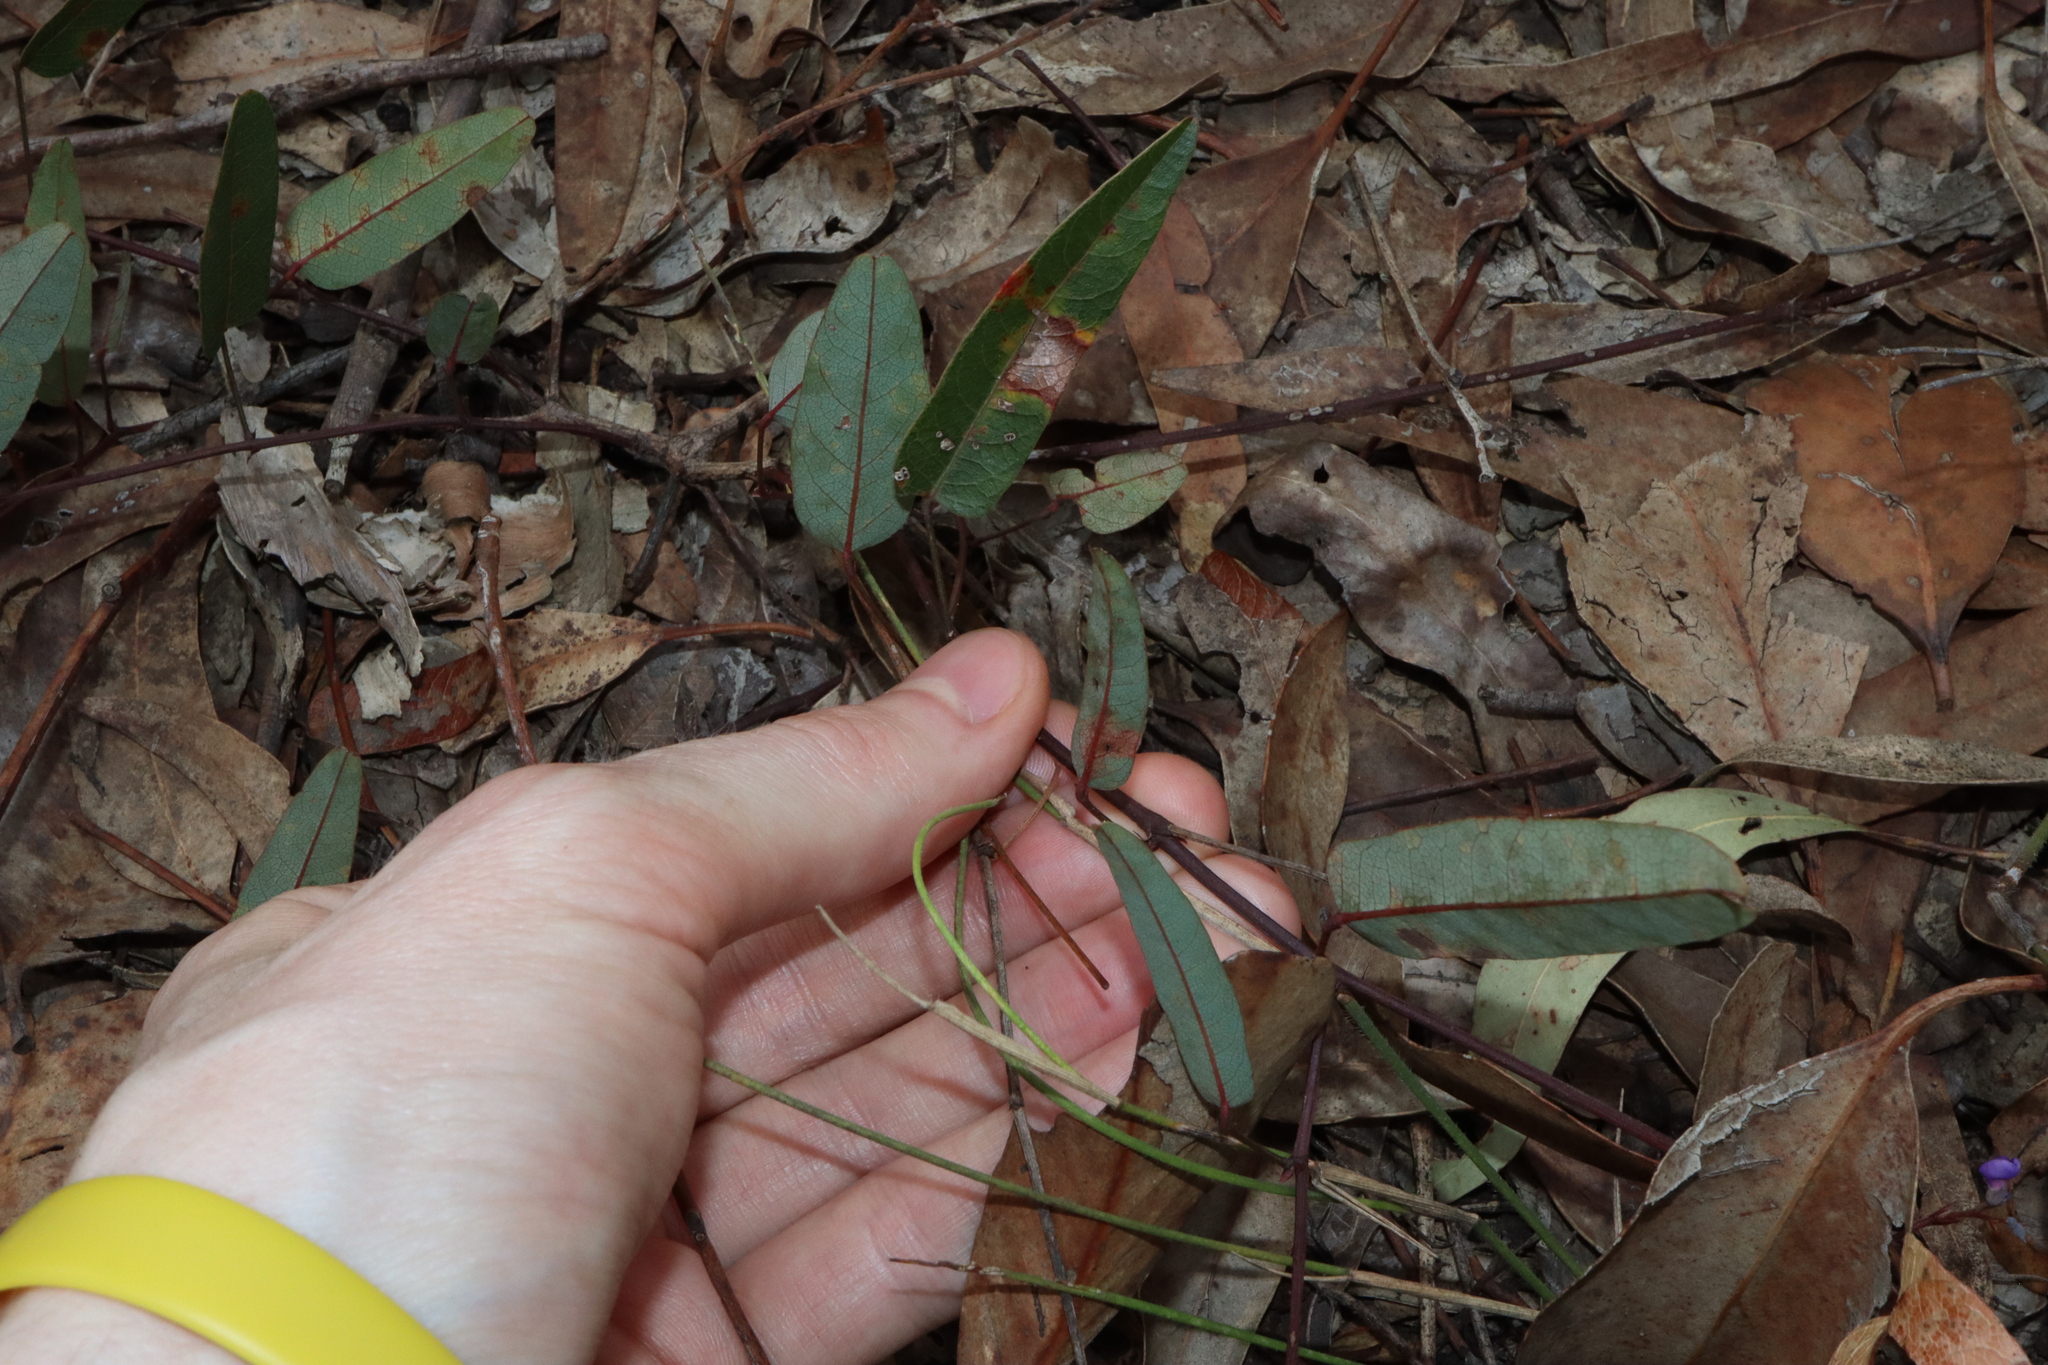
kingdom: Plantae
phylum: Tracheophyta
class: Magnoliopsida
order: Fabales
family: Fabaceae
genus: Hardenbergia
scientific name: Hardenbergia violacea
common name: Coral-pea
